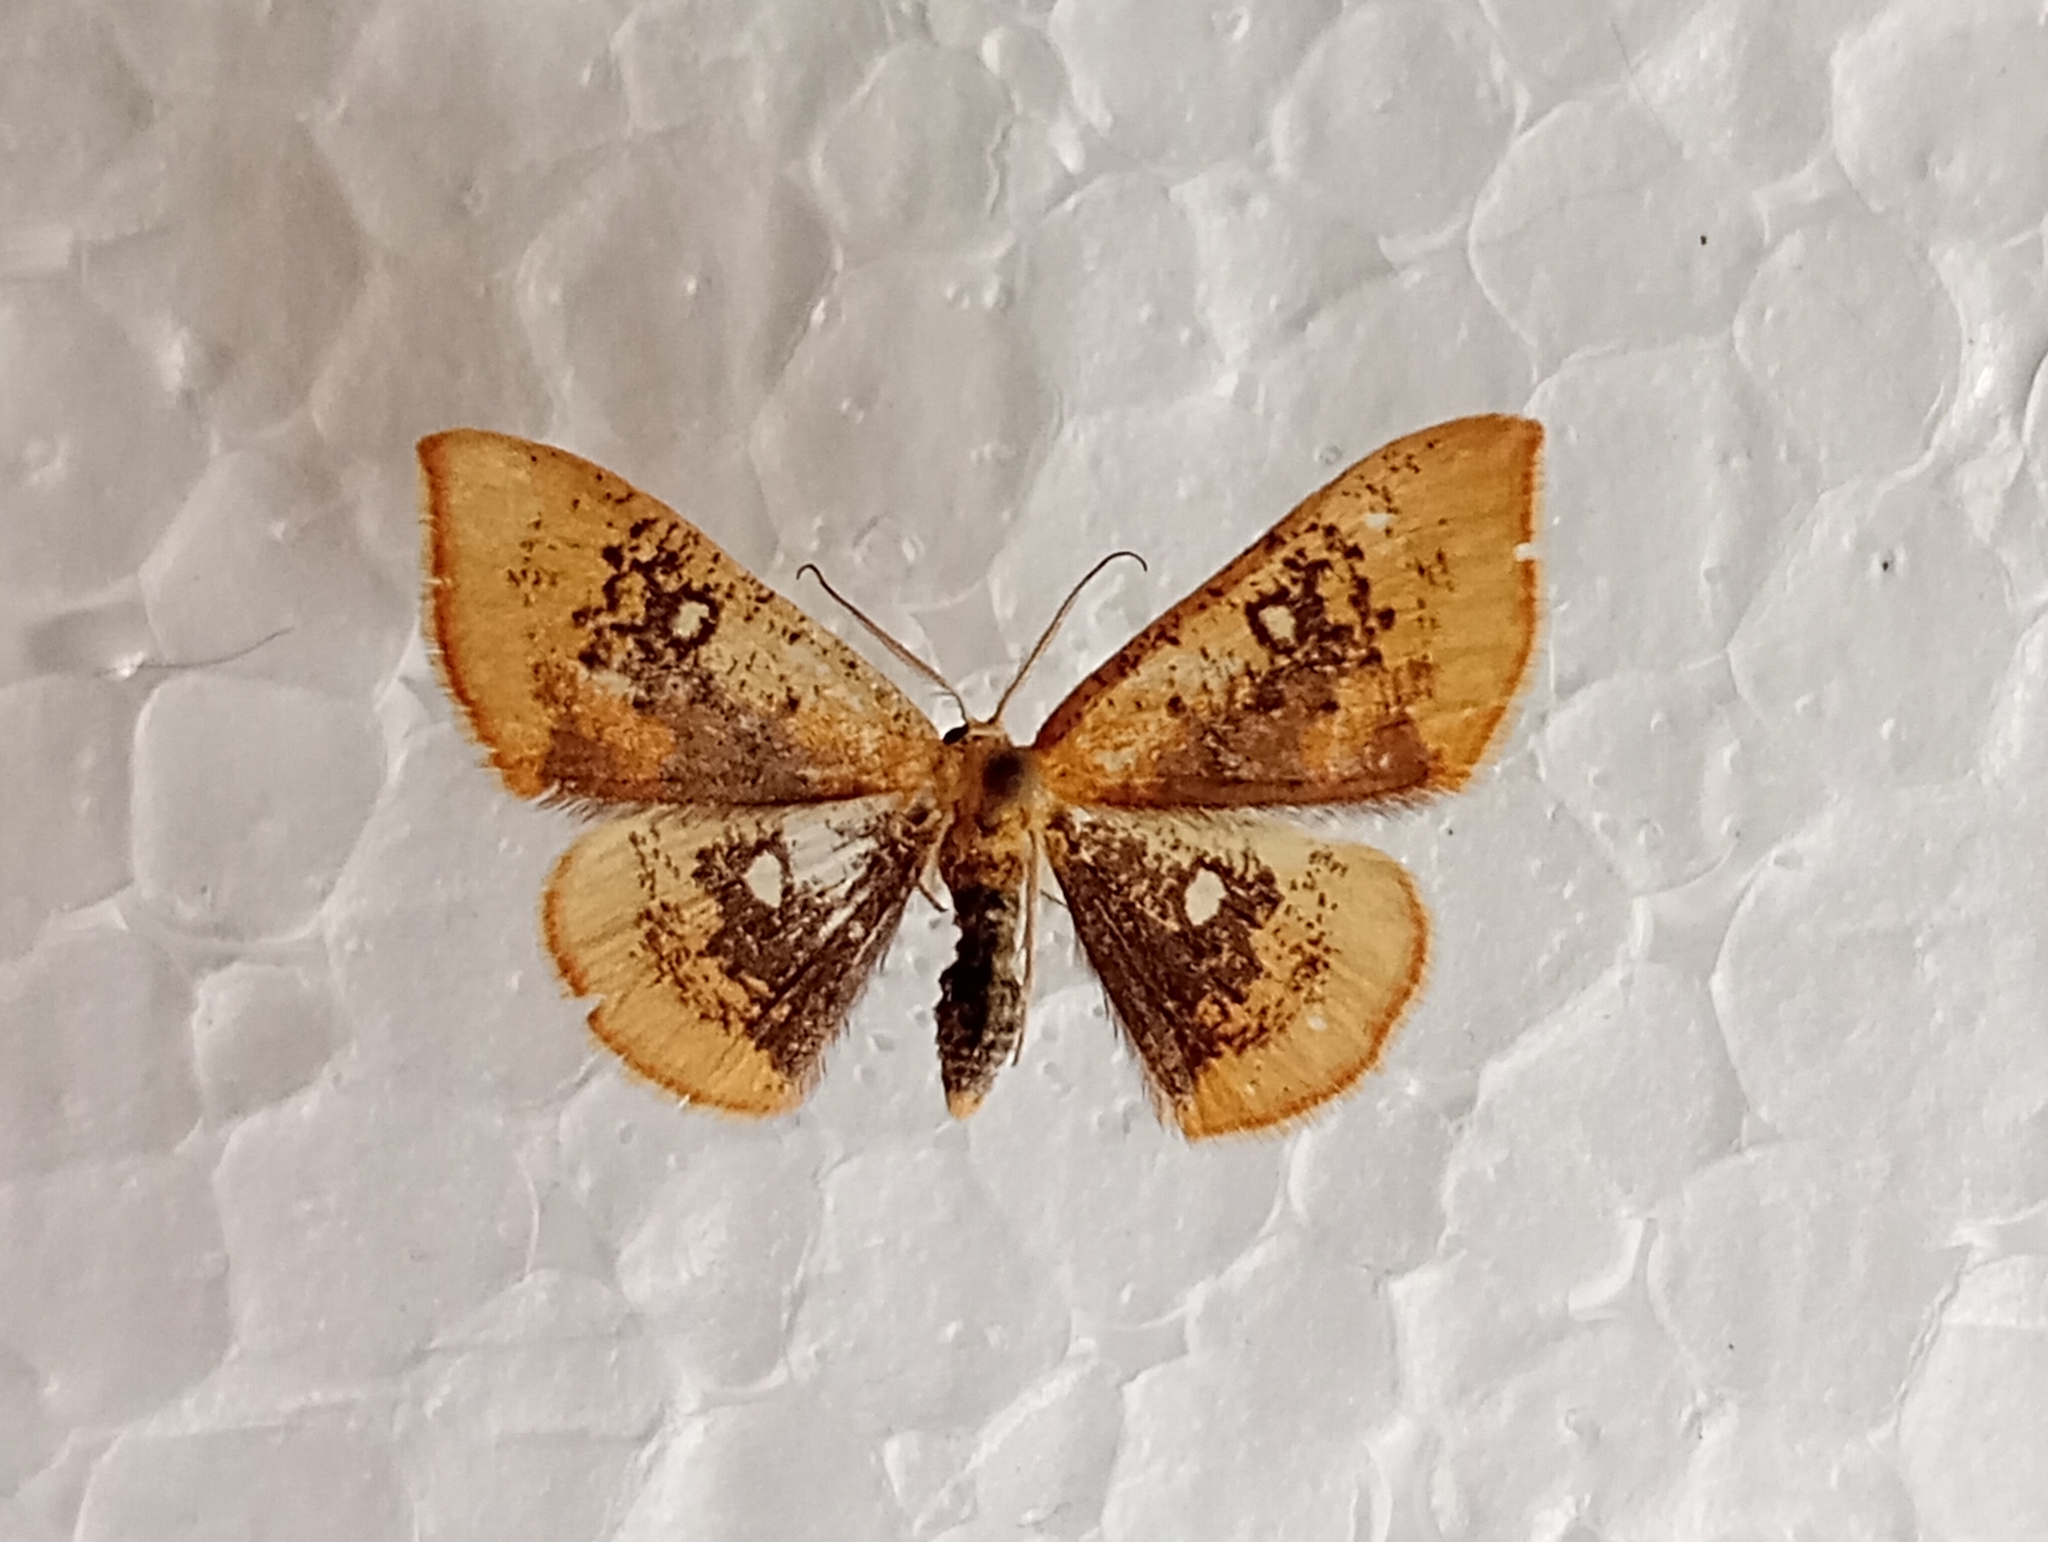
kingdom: Animalia
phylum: Arthropoda
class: Insecta
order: Lepidoptera
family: Geometridae
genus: Cyclophora
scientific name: Cyclophora albiocellaria
